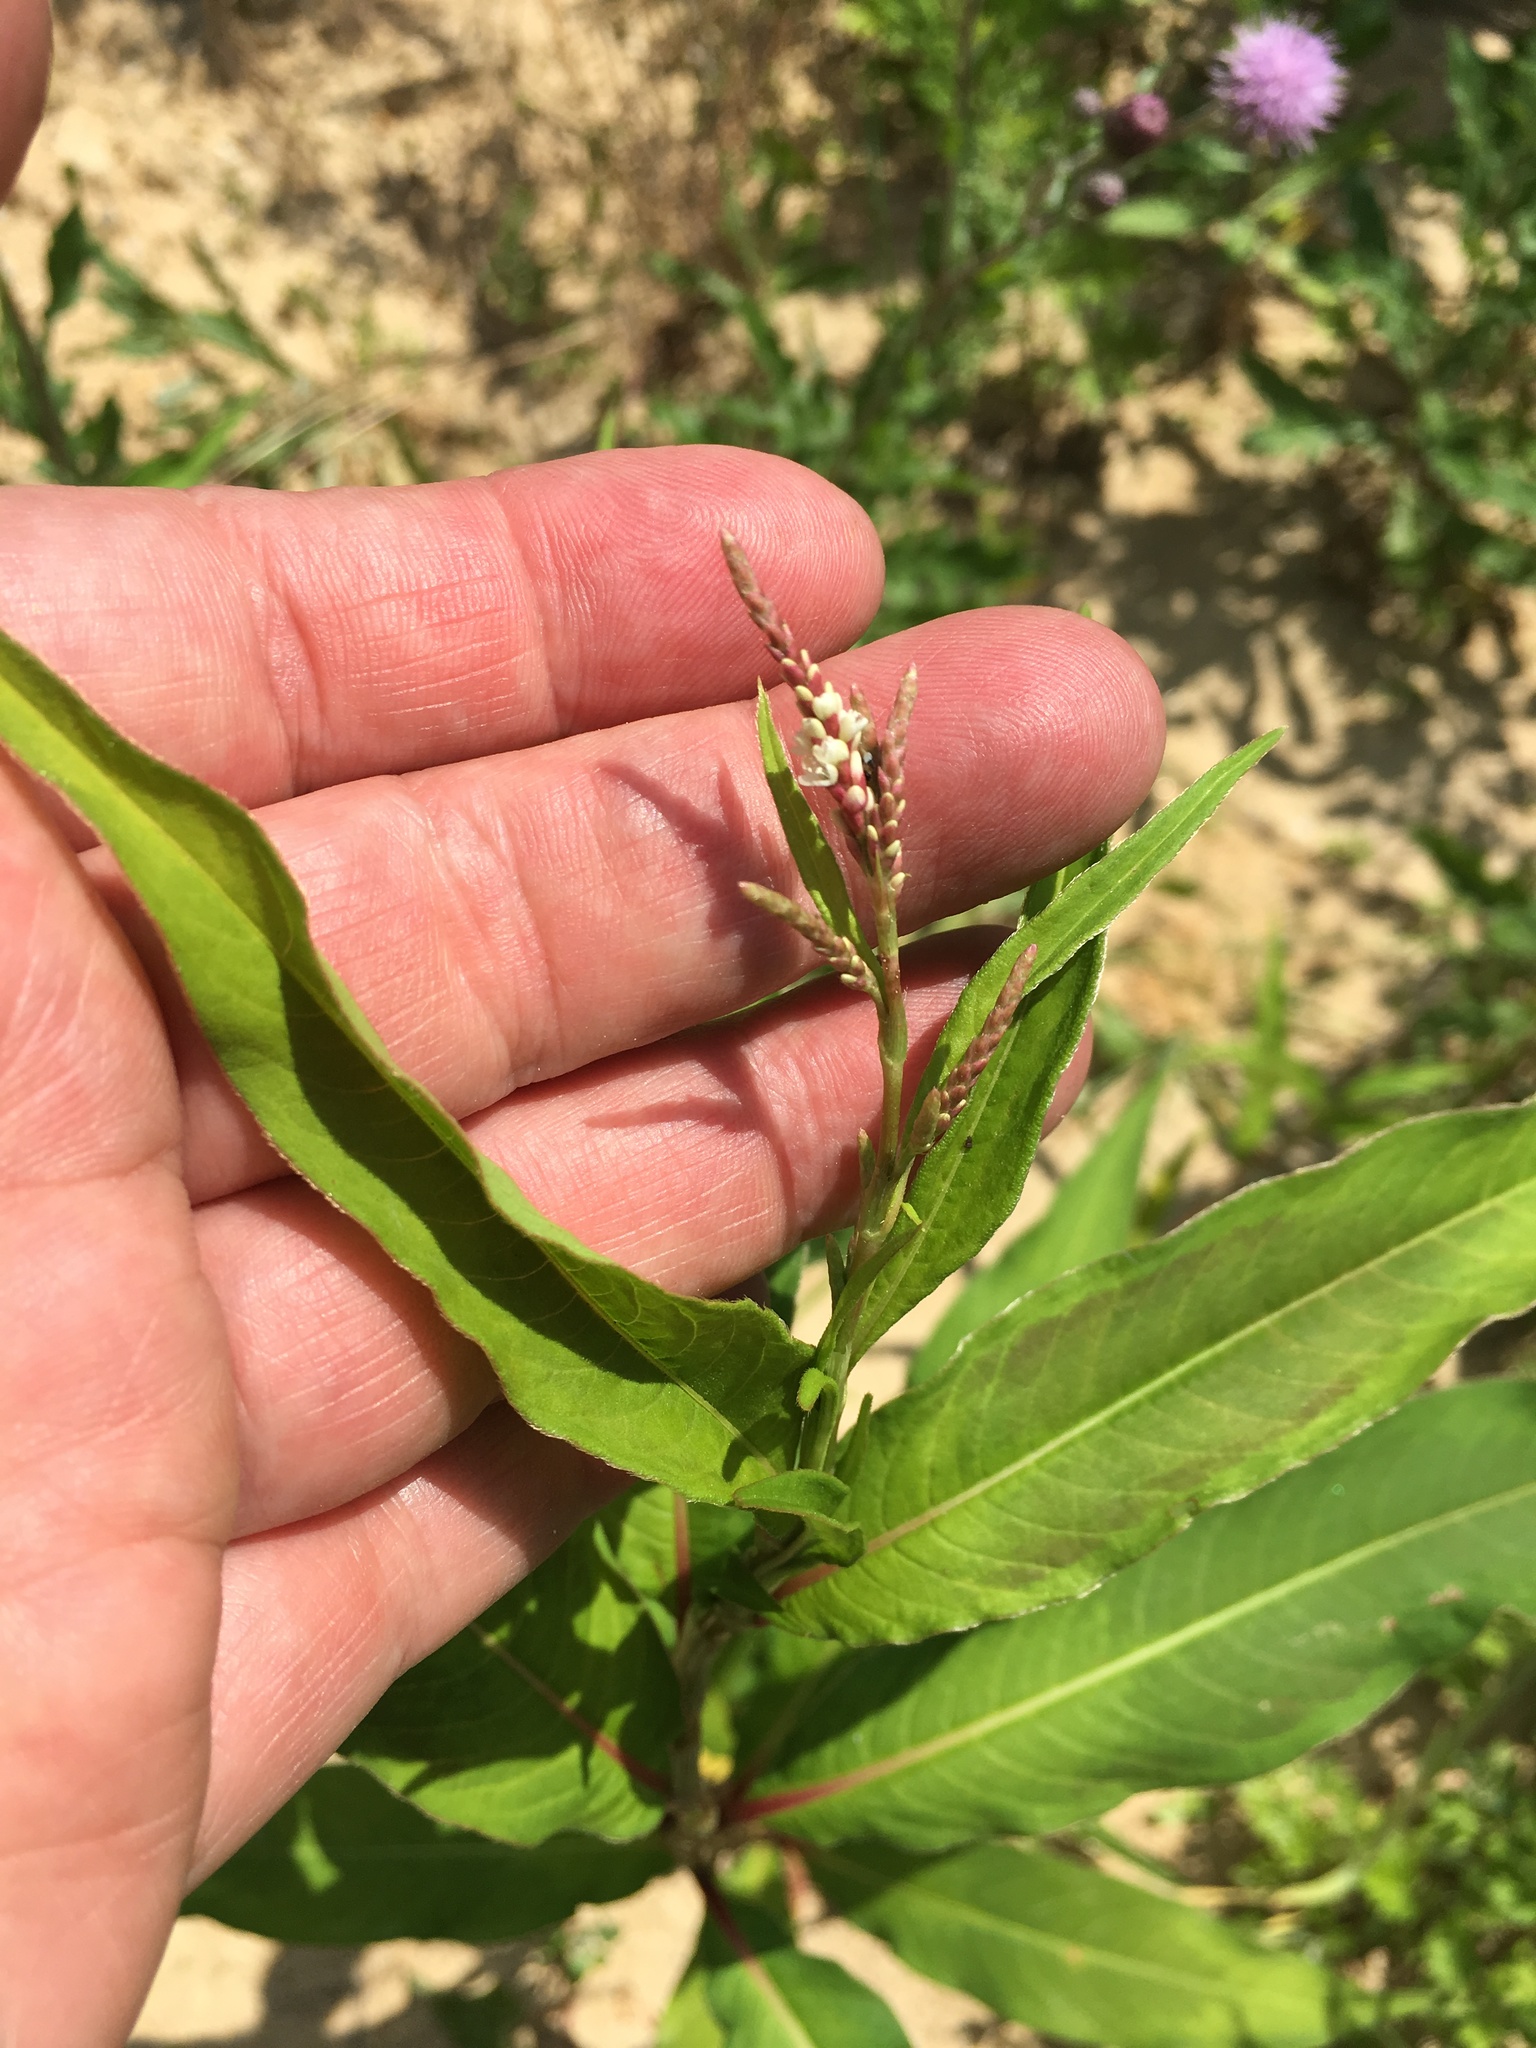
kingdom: Plantae
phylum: Tracheophyta
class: Magnoliopsida
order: Caryophyllales
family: Polygonaceae
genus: Persicaria
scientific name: Persicaria extremiorientalis
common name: Far-eastern smartweed
